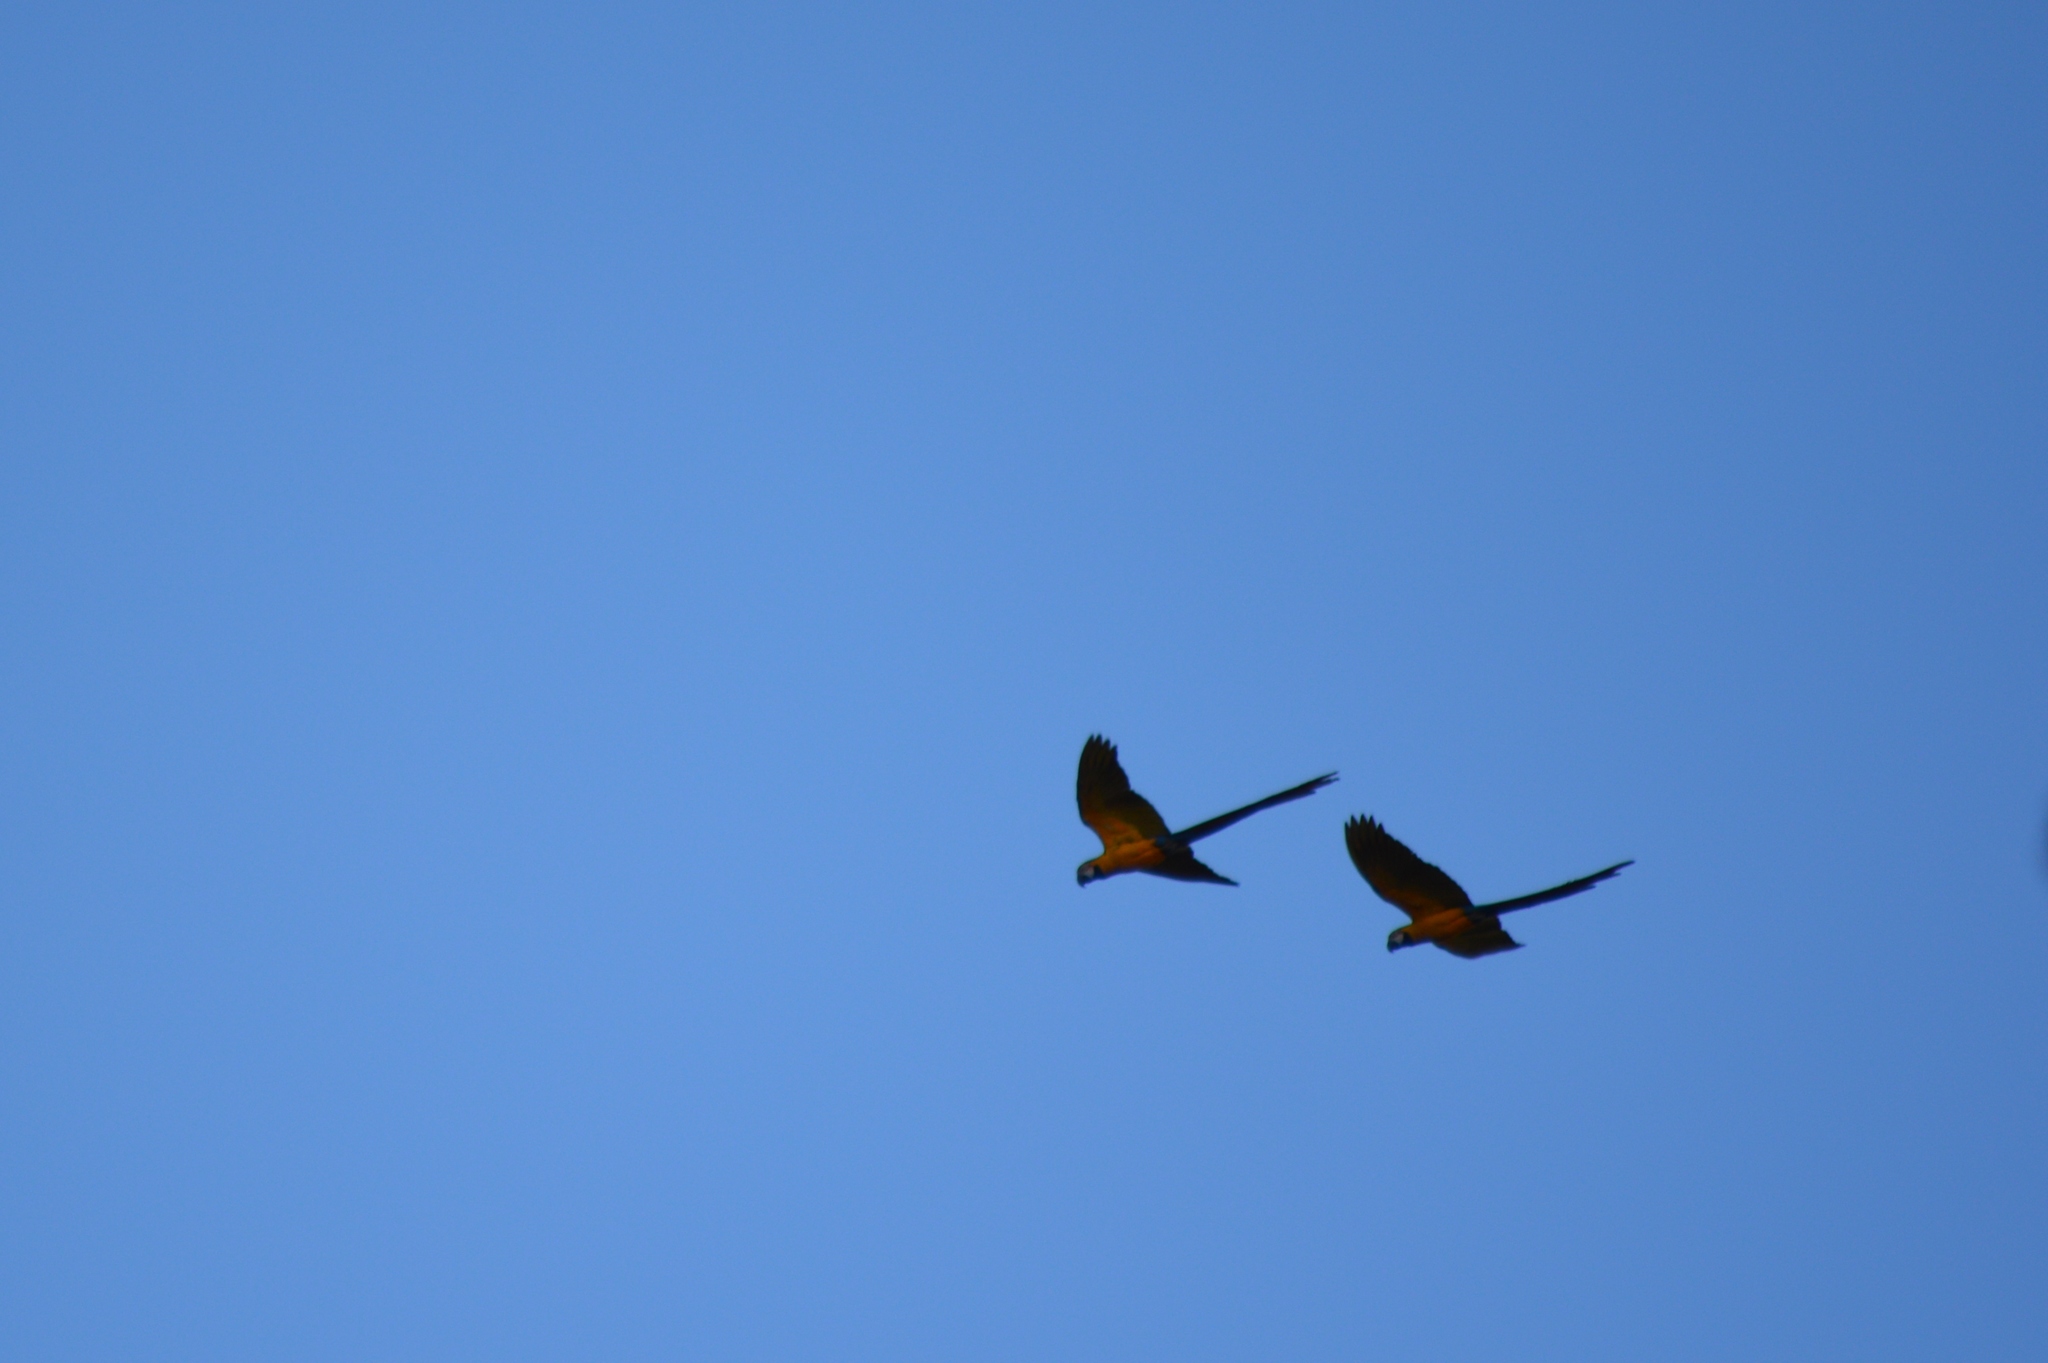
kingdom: Animalia
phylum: Chordata
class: Aves
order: Psittaciformes
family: Psittacidae
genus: Ara
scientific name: Ara ararauna
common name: Blue-and-yellow macaw
